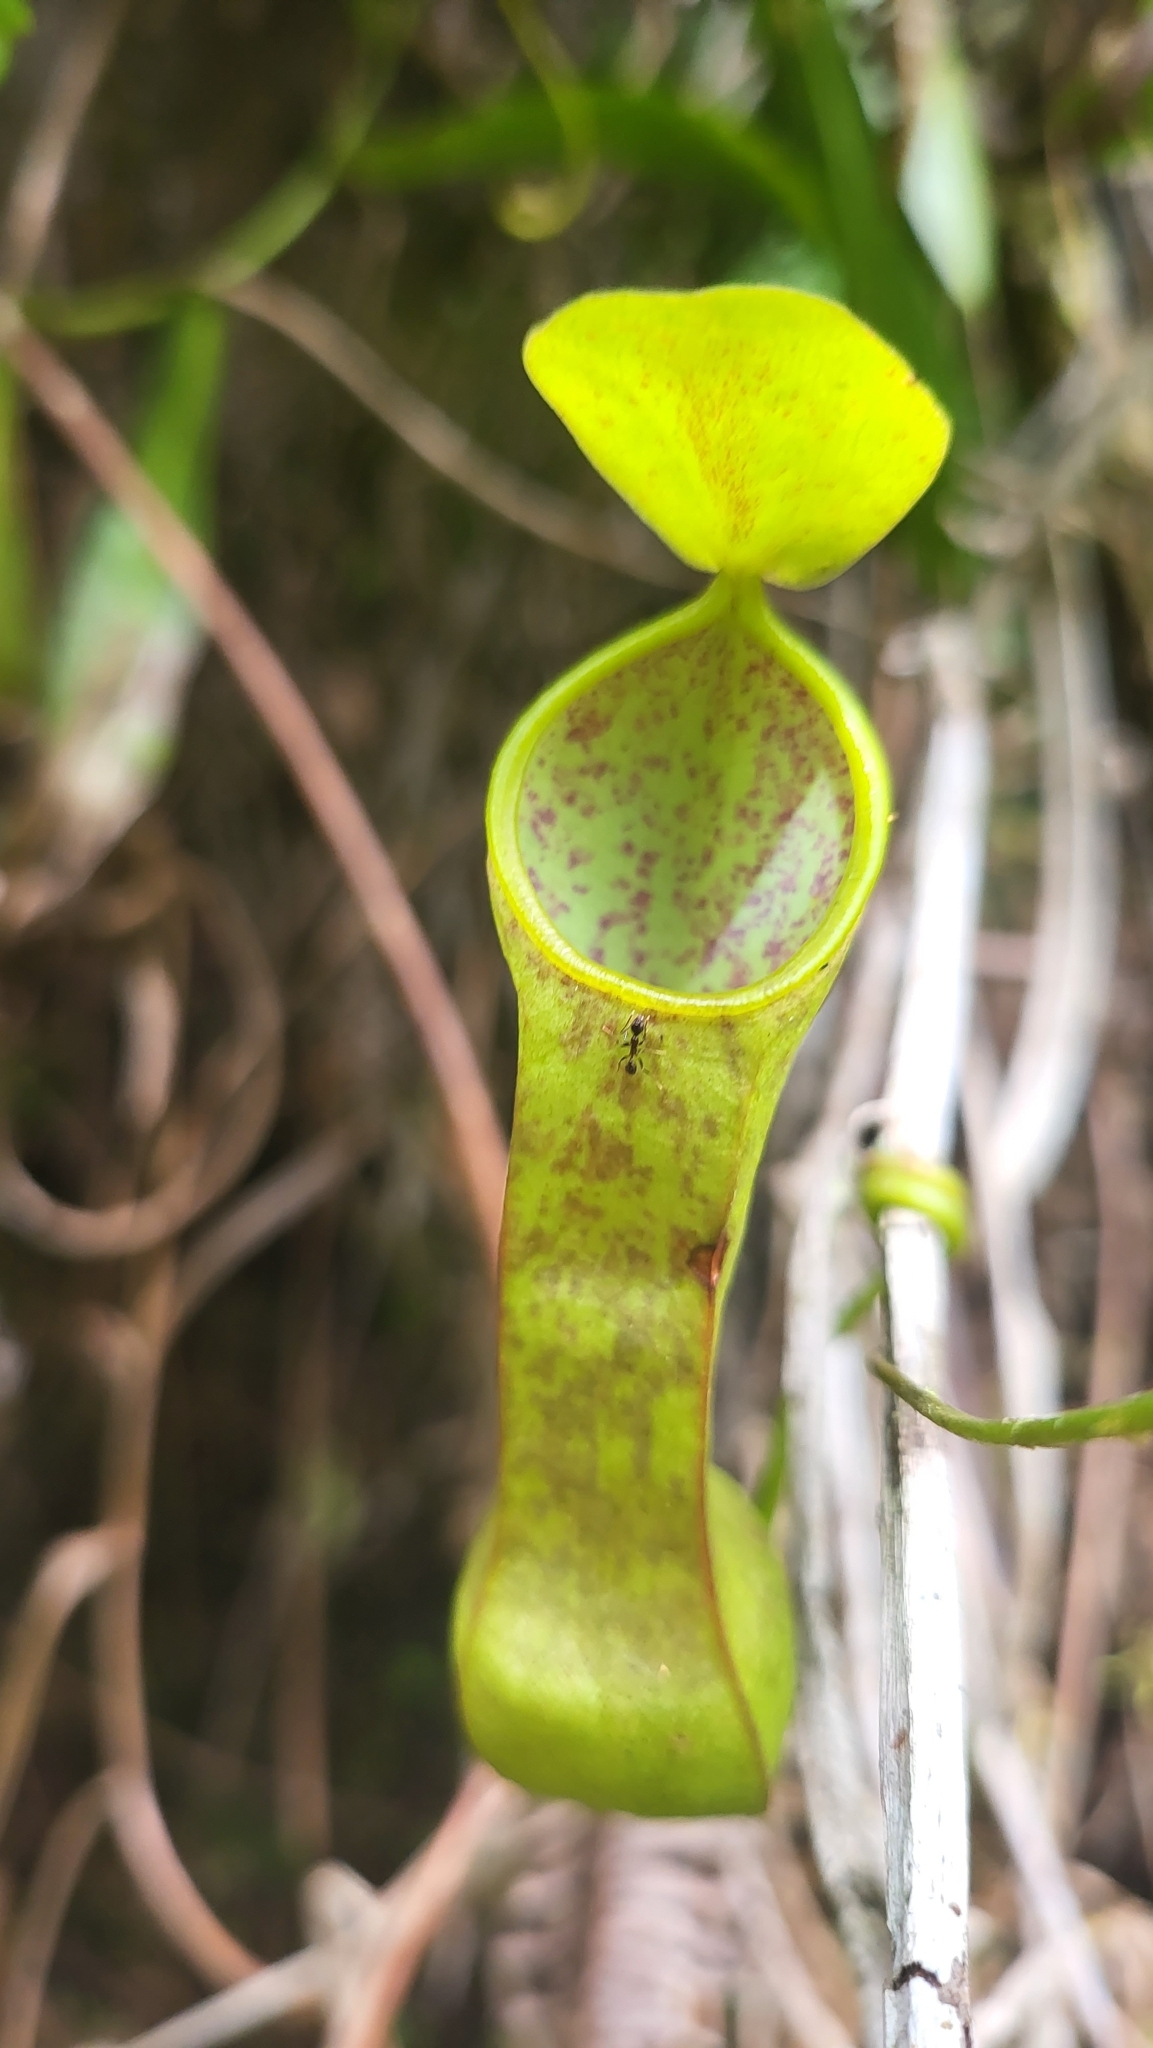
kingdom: Plantae
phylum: Tracheophyta
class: Magnoliopsida
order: Caryophyllales
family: Nepenthaceae
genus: Nepenthes
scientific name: Nepenthes tobaica
